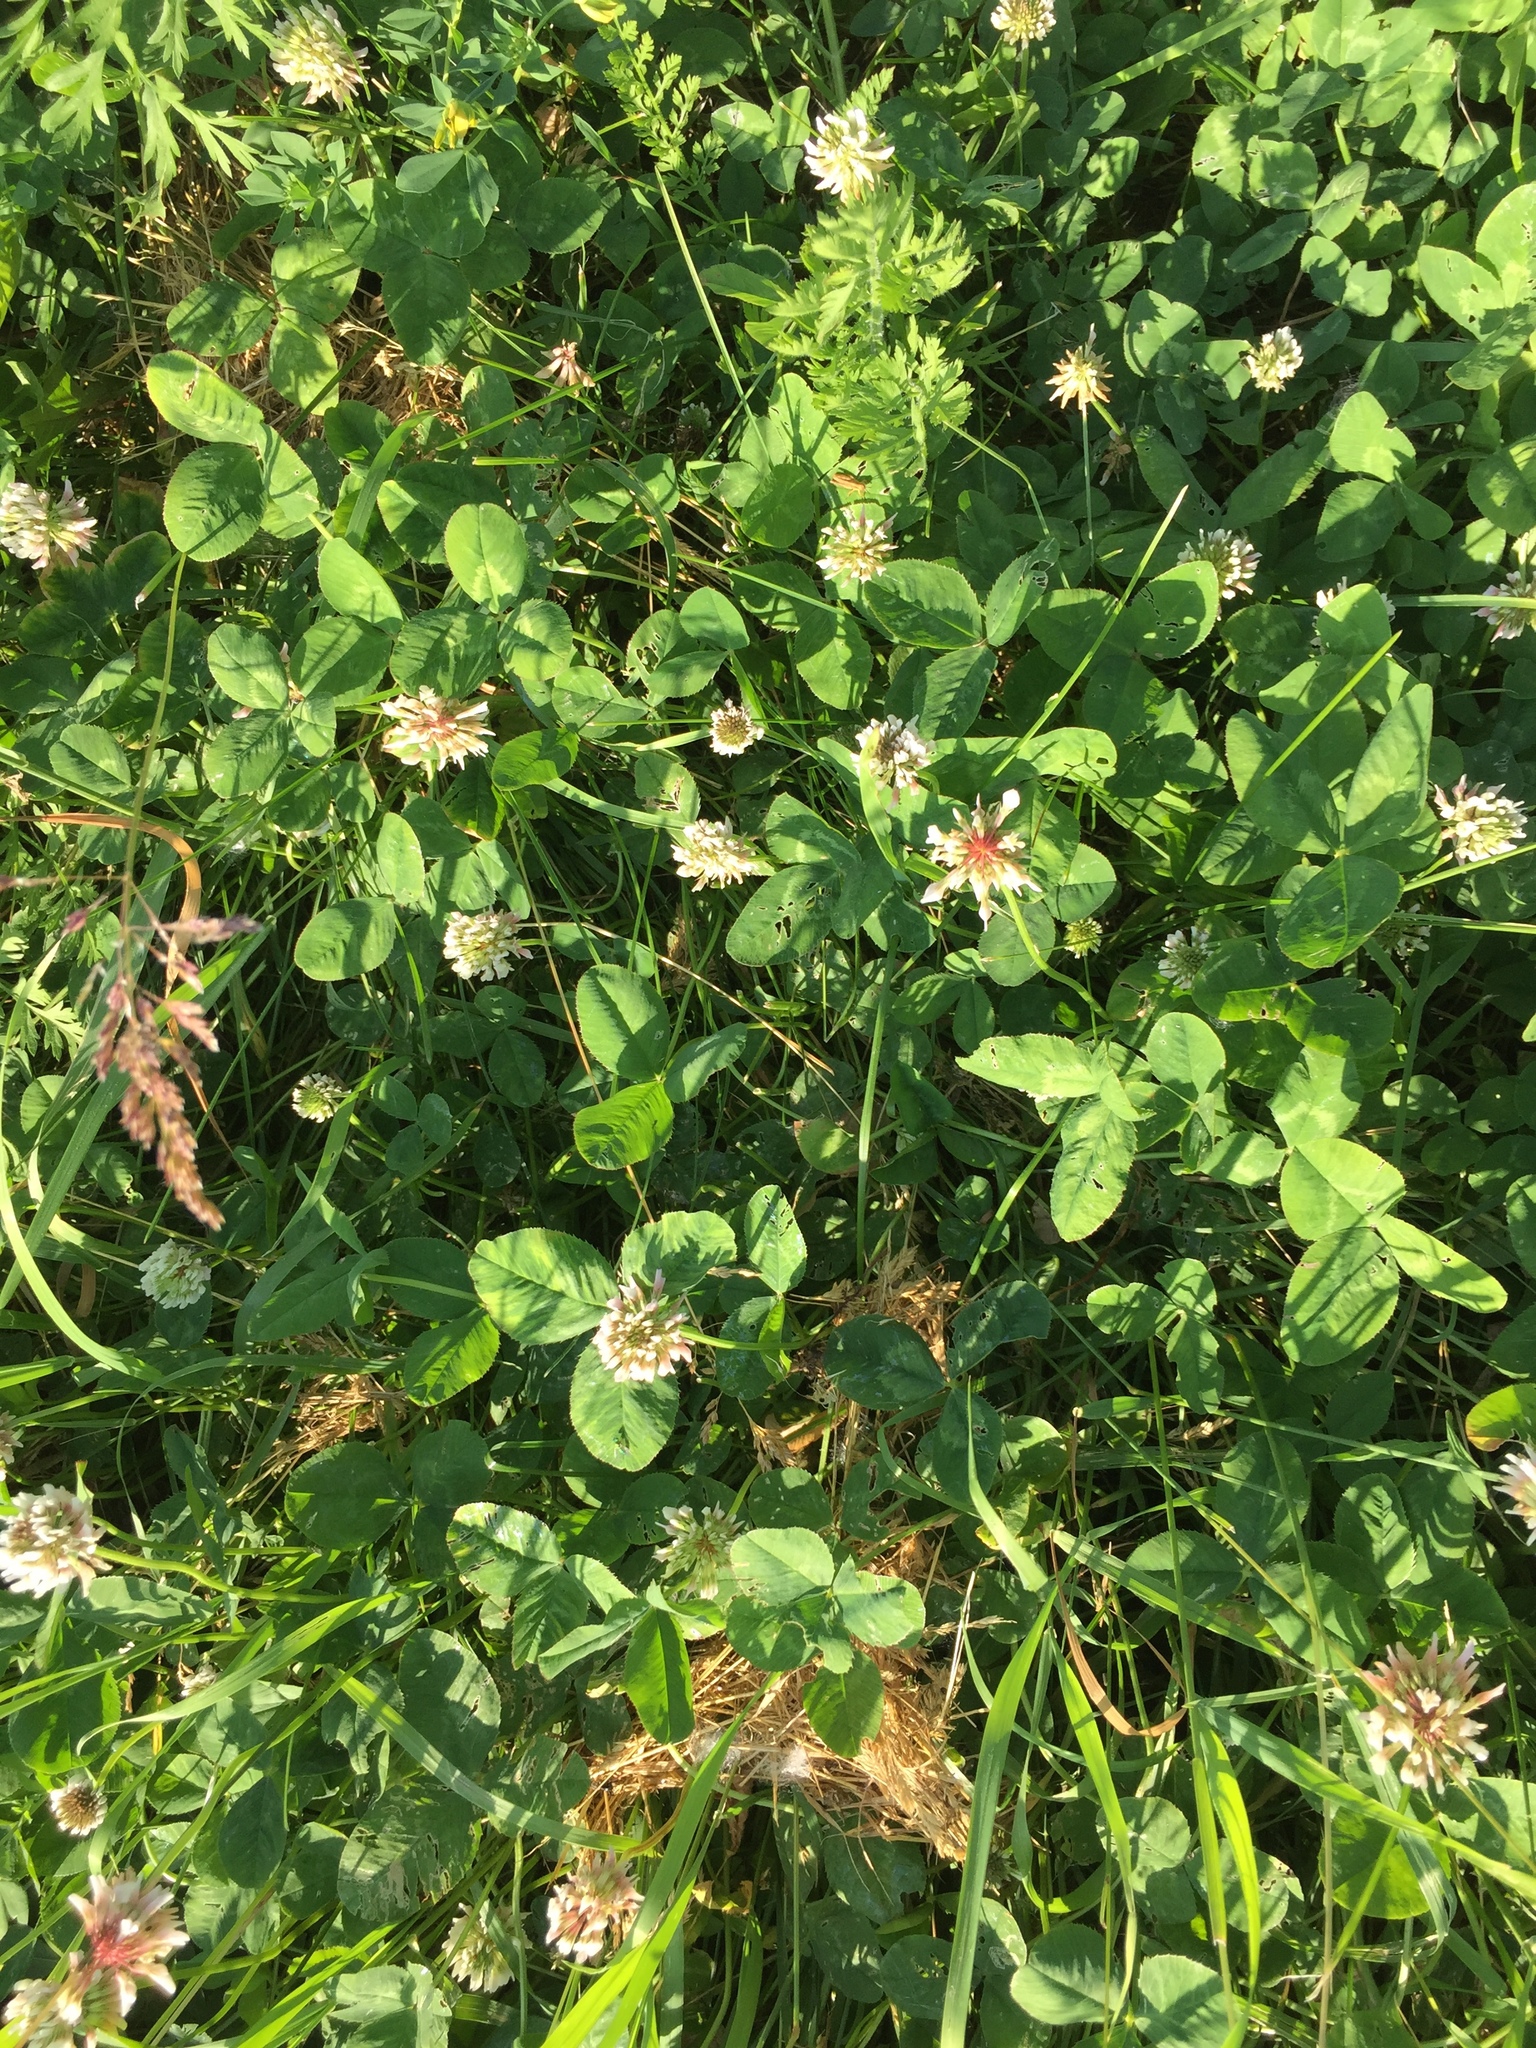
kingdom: Plantae
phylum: Tracheophyta
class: Magnoliopsida
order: Fabales
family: Fabaceae
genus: Trifolium
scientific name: Trifolium repens
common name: White clover
